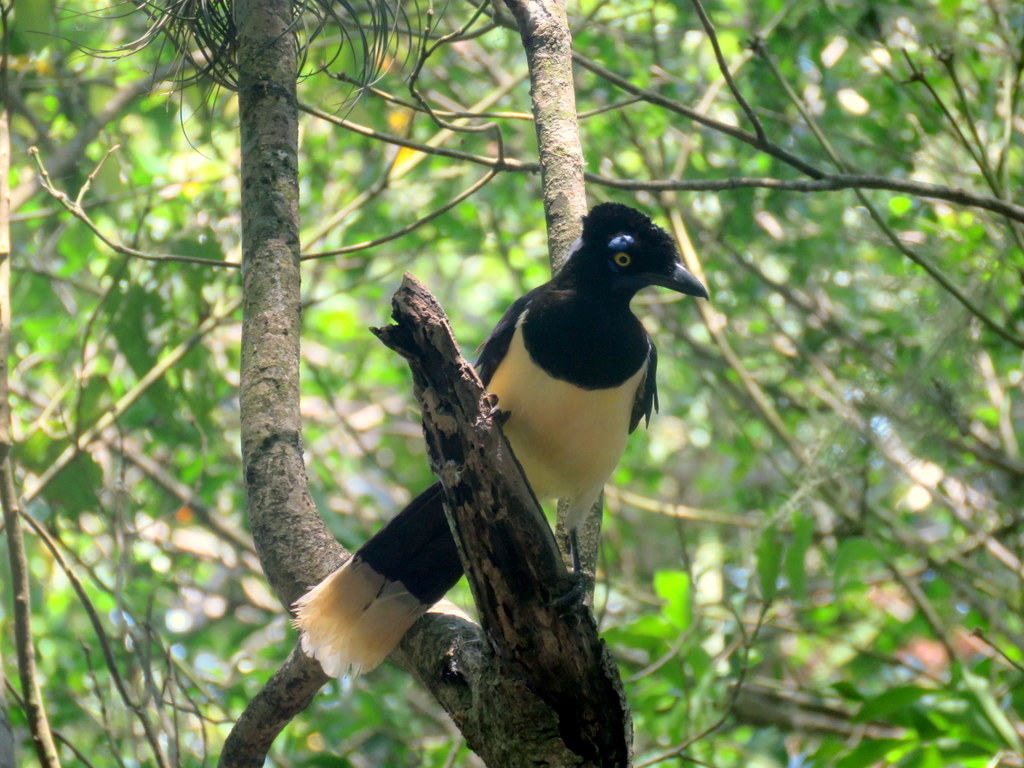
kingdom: Animalia
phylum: Chordata
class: Aves
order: Passeriformes
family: Corvidae
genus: Cyanocorax
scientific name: Cyanocorax chrysops
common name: Plush-crested jay
